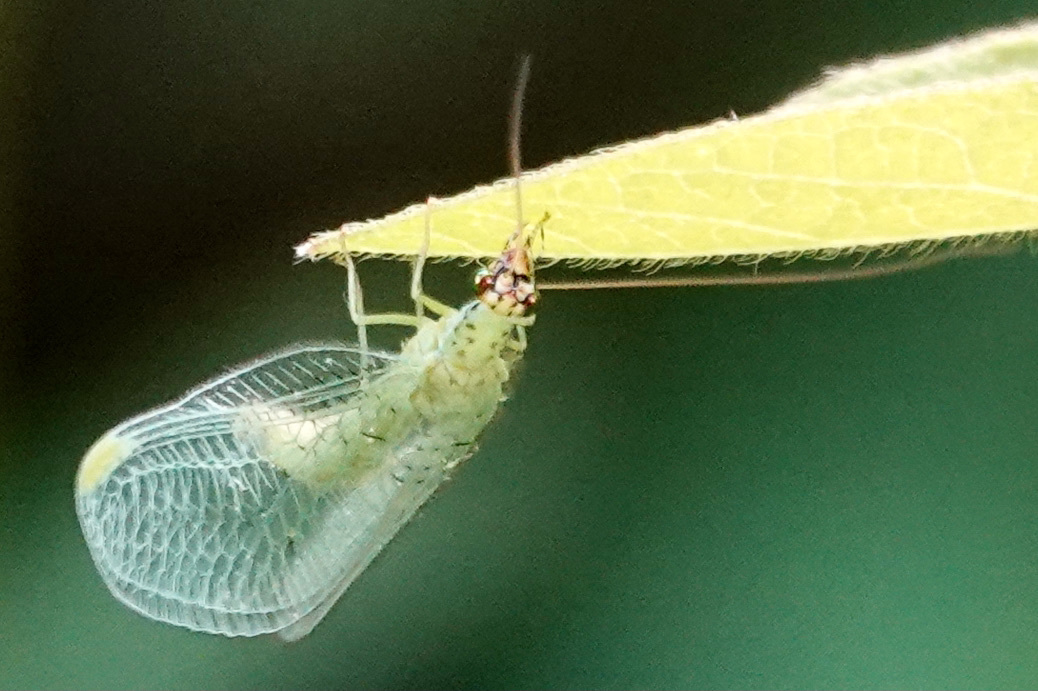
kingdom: Animalia
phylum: Arthropoda
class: Insecta
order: Neuroptera
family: Chrysopidae
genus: Chrysopa
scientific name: Chrysopa oculata
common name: Golden-eyed lacewing
